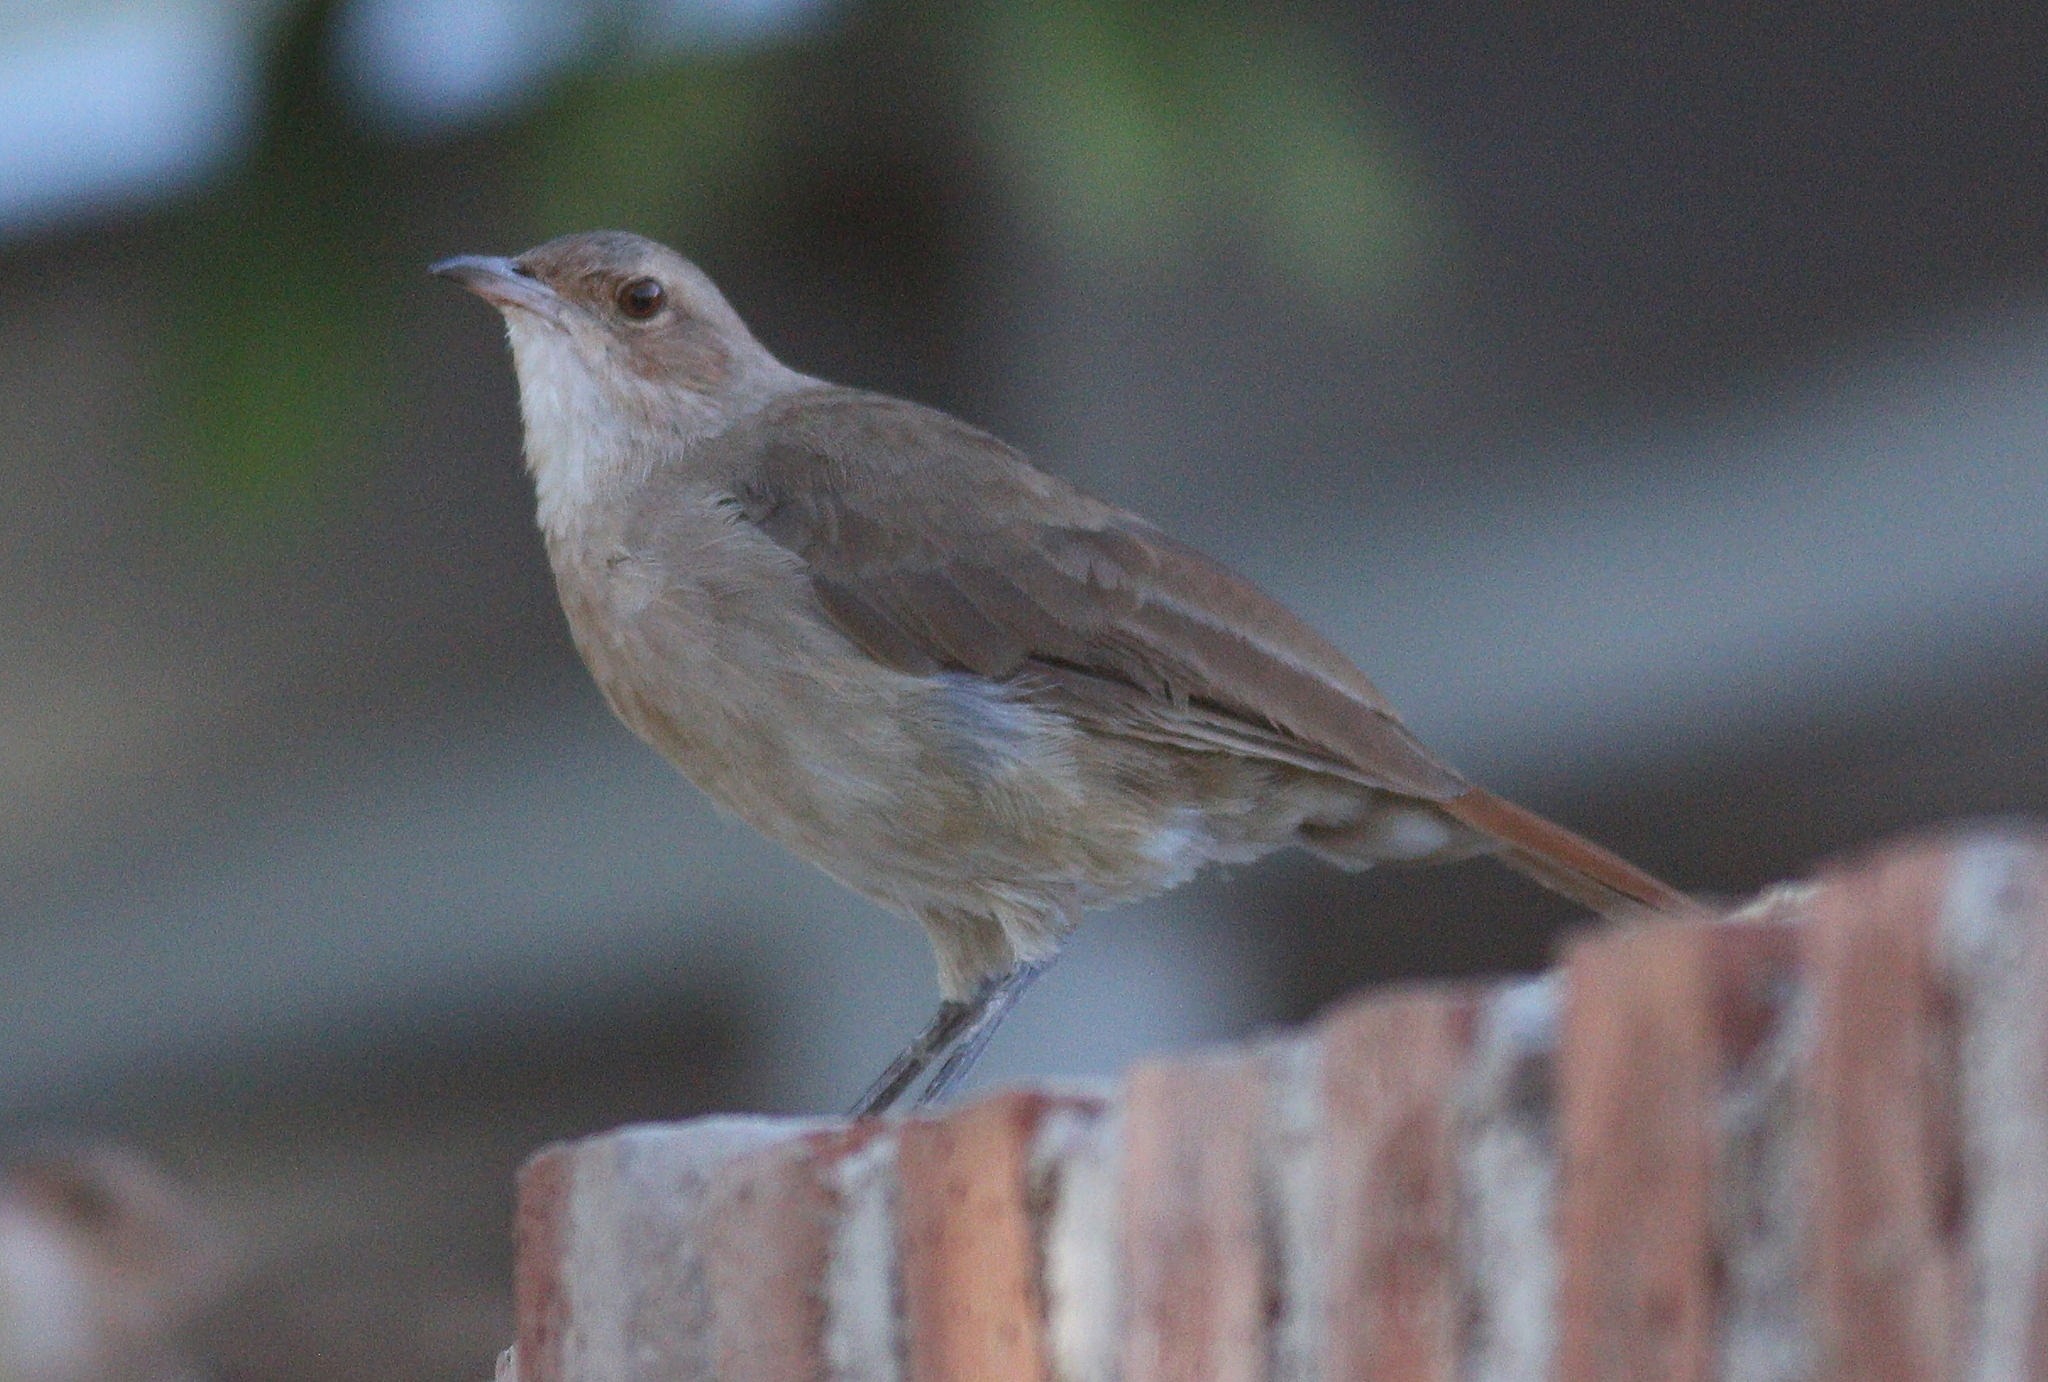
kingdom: Animalia
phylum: Chordata
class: Aves
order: Passeriformes
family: Furnariidae
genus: Furnarius
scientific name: Furnarius rufus
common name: Rufous hornero
